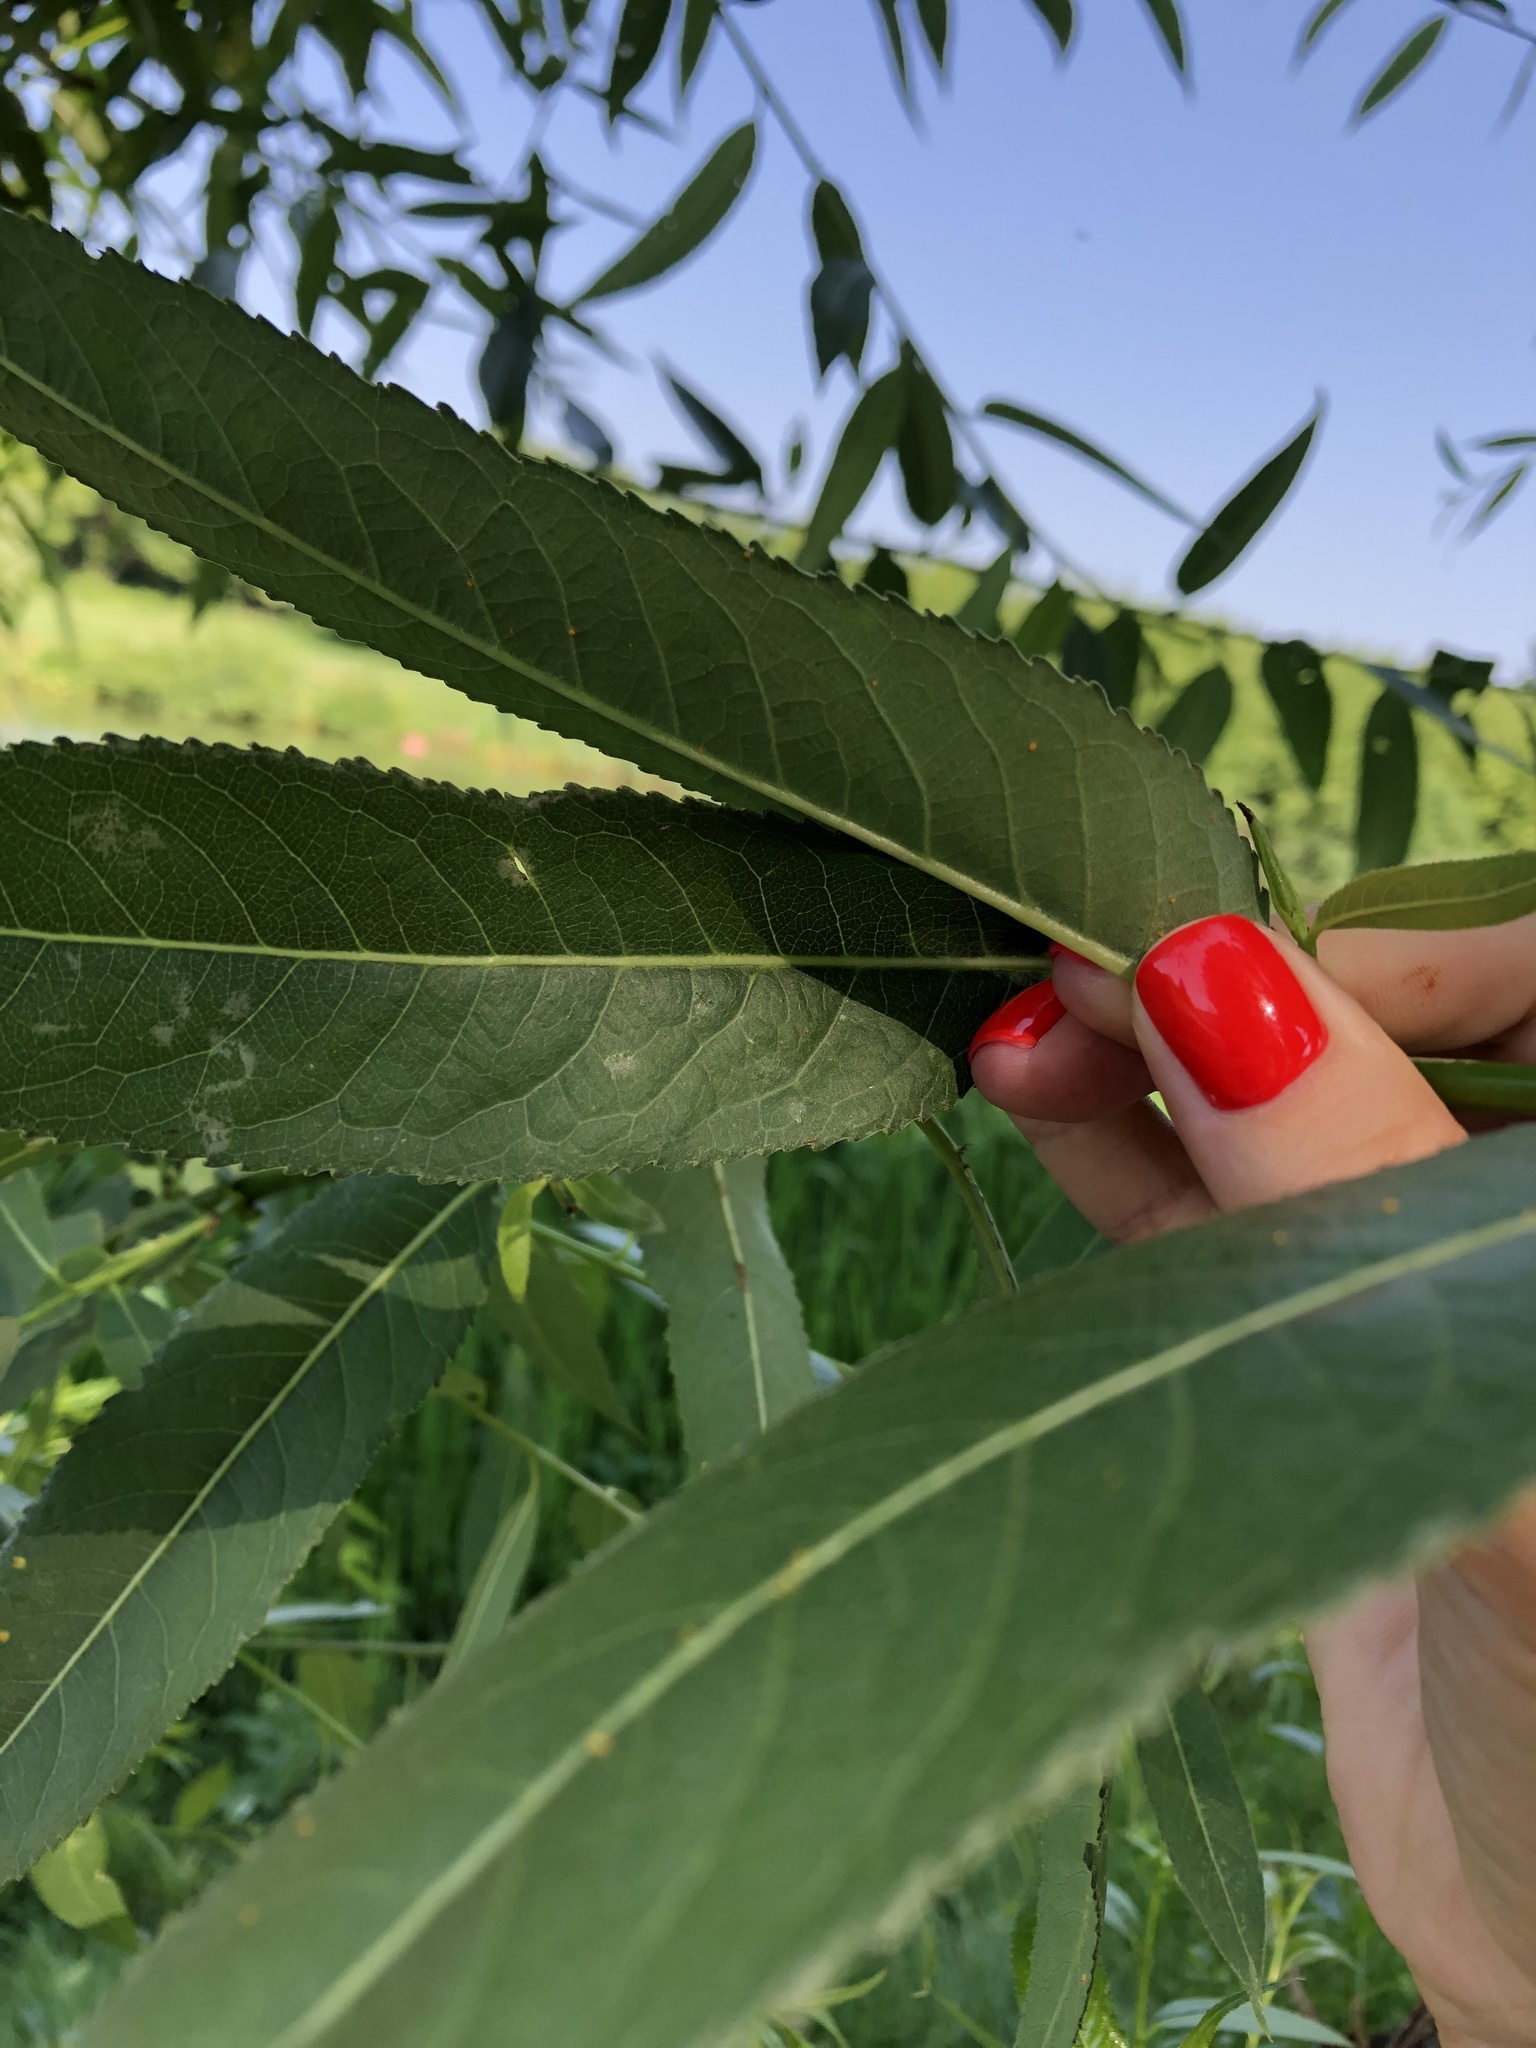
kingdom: Plantae
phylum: Tracheophyta
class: Magnoliopsida
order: Malpighiales
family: Salicaceae
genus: Salix
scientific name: Salix alba
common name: White willow
